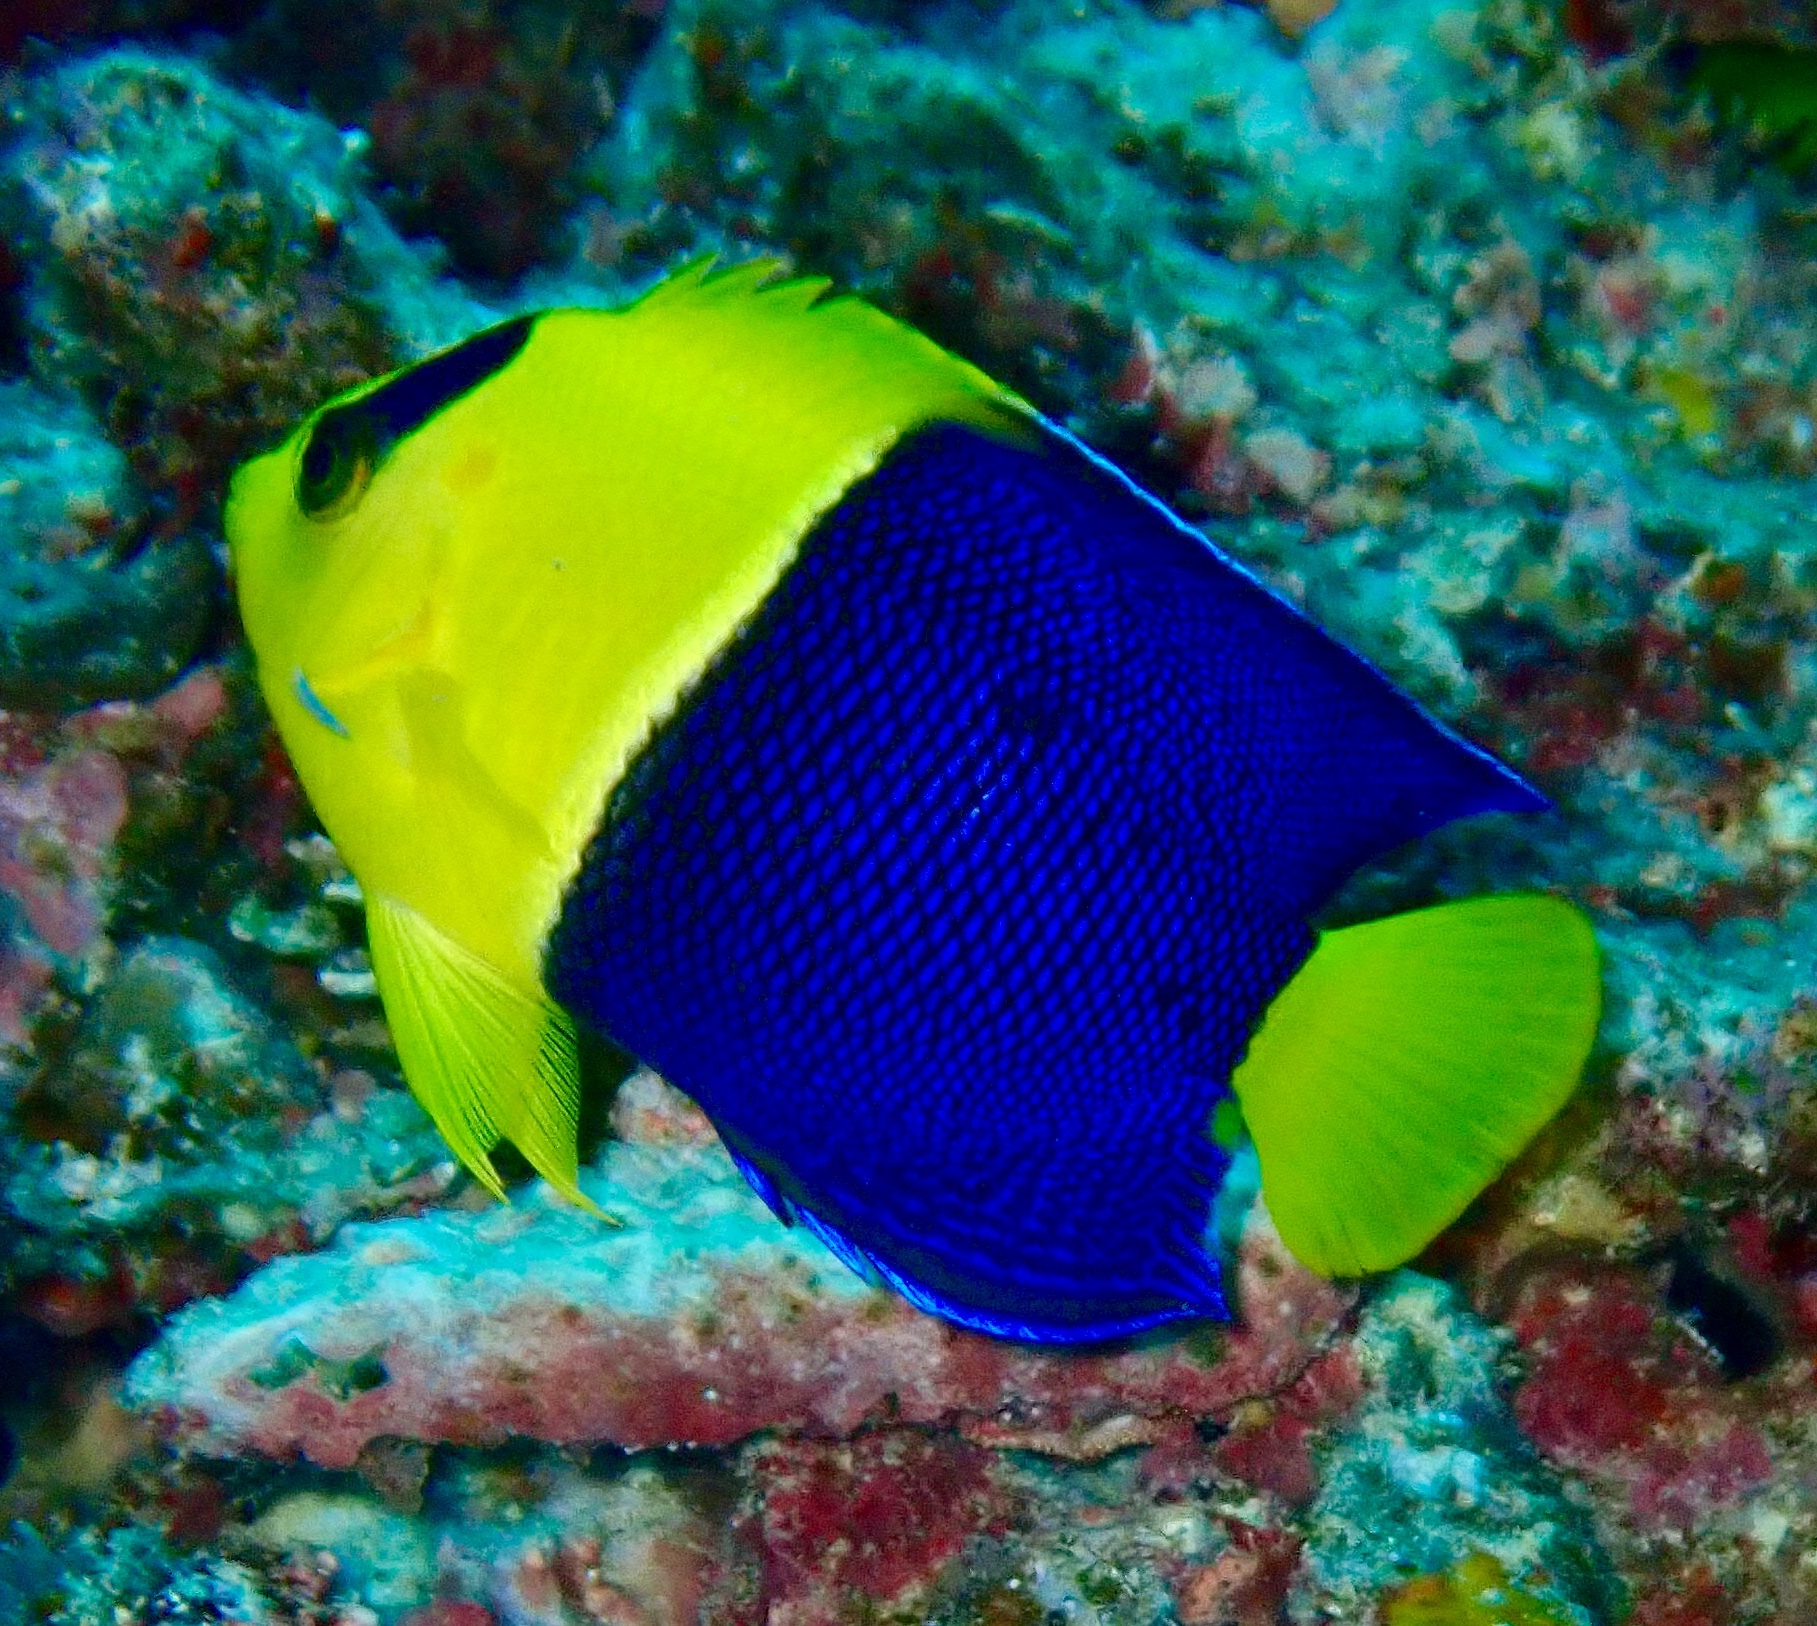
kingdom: Animalia
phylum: Chordata
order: Perciformes
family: Pomacanthidae
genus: Centropyge
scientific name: Centropyge bicolor
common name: Bicolor angelfish
